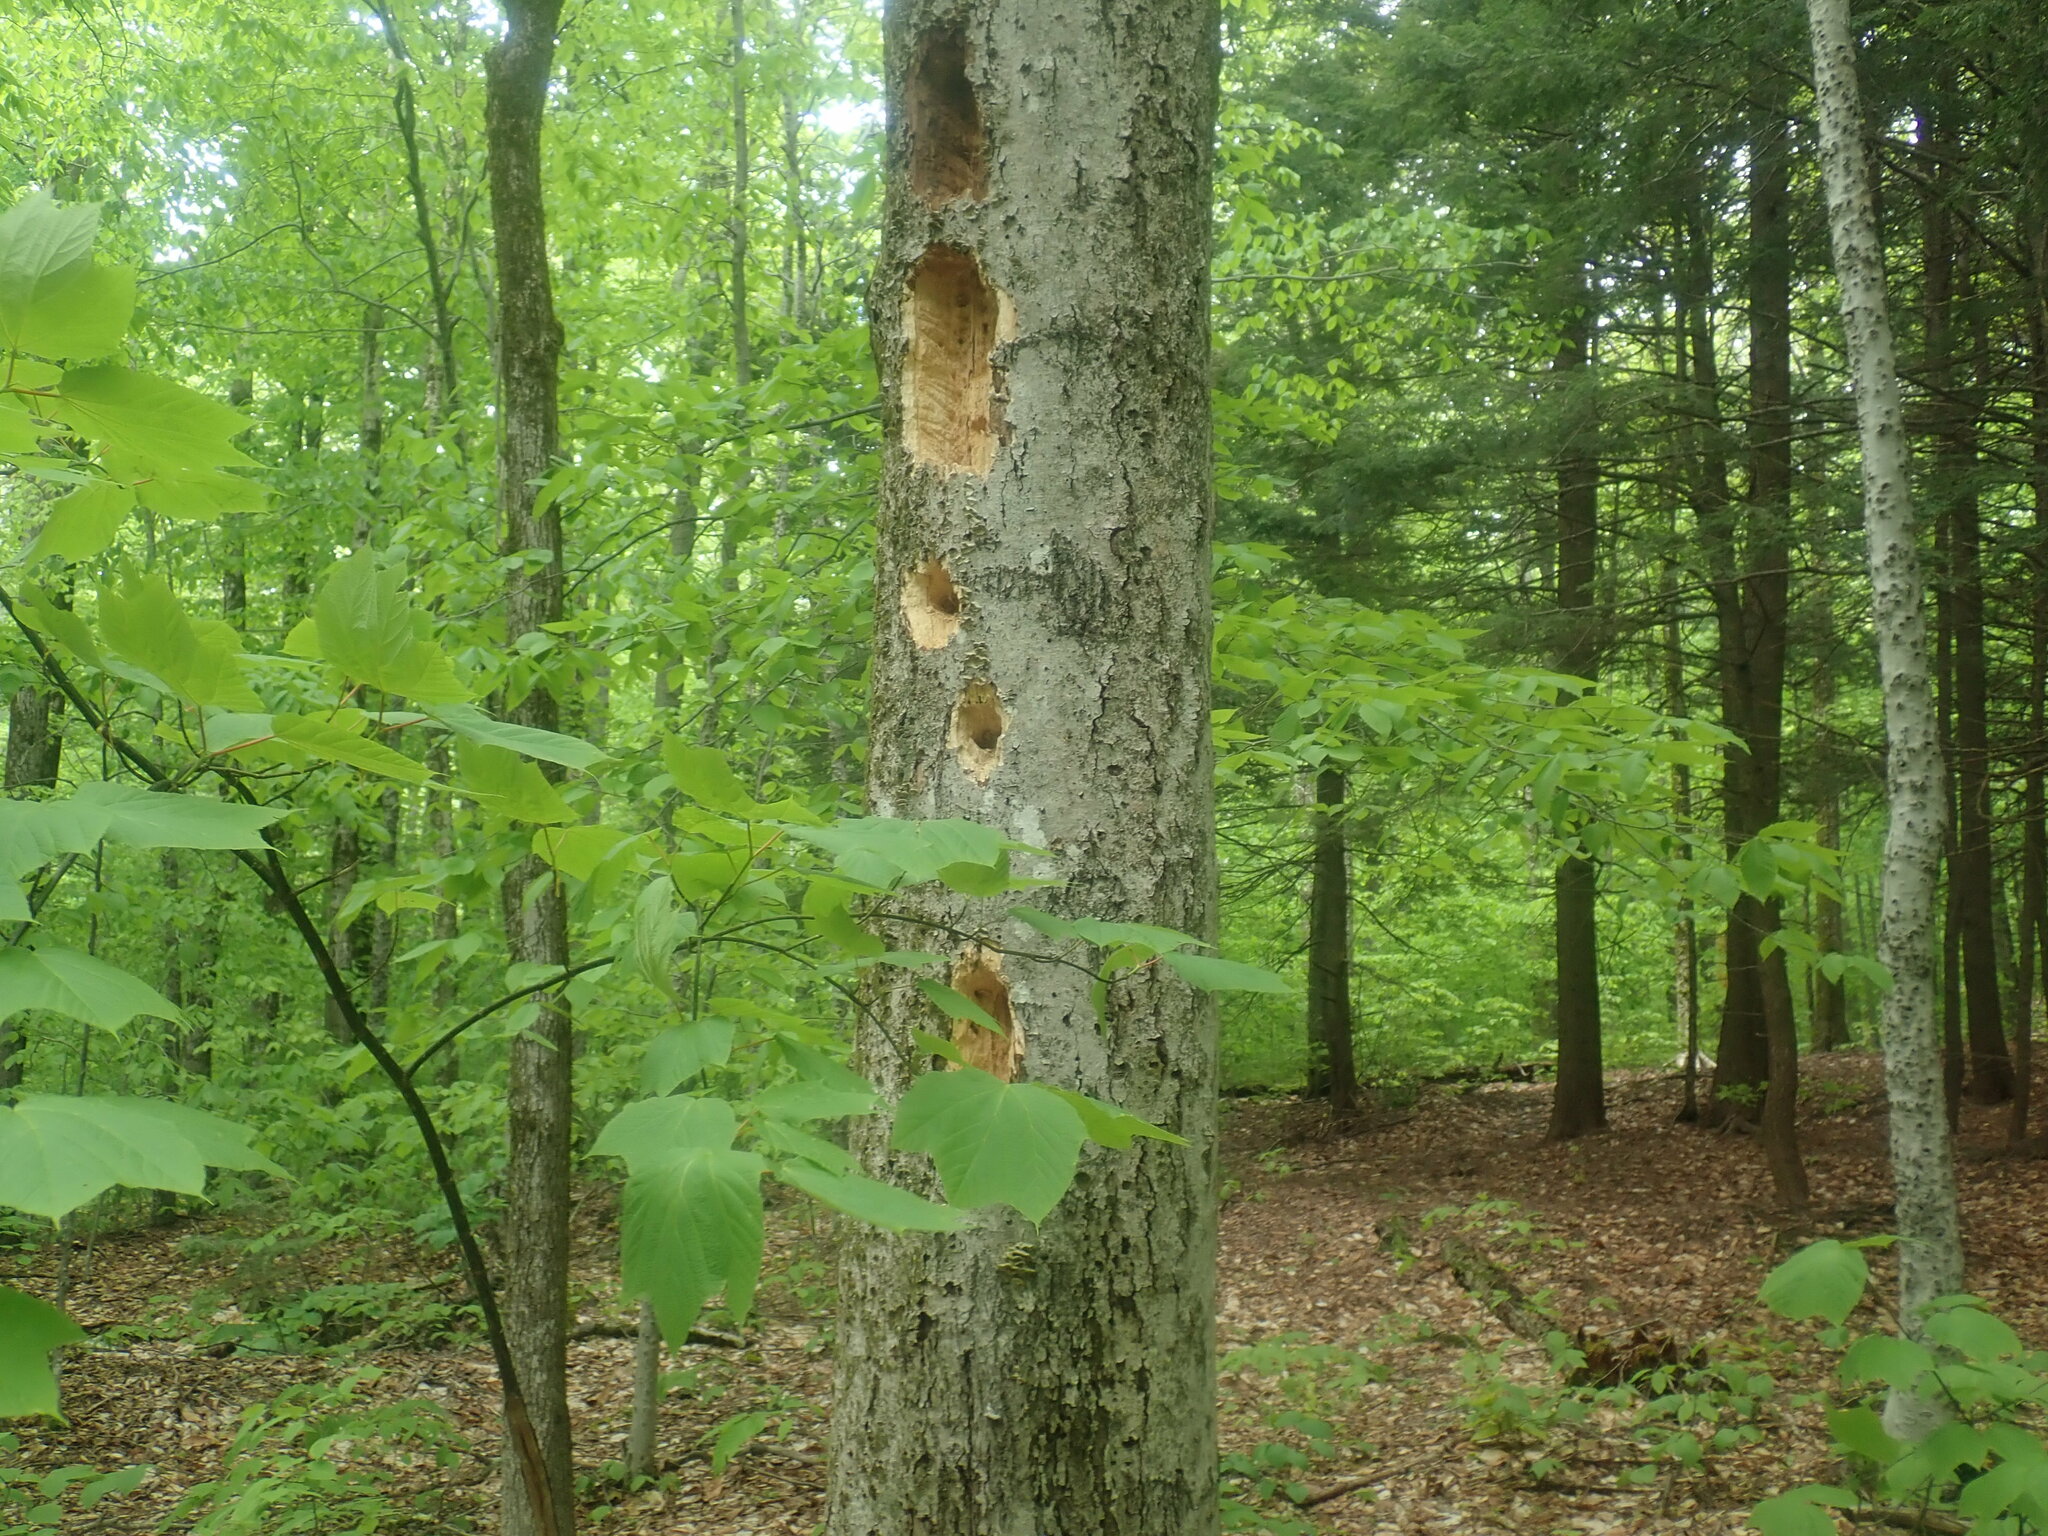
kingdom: Animalia
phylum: Chordata
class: Aves
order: Piciformes
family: Picidae
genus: Dryocopus
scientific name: Dryocopus pileatus
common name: Pileated woodpecker
